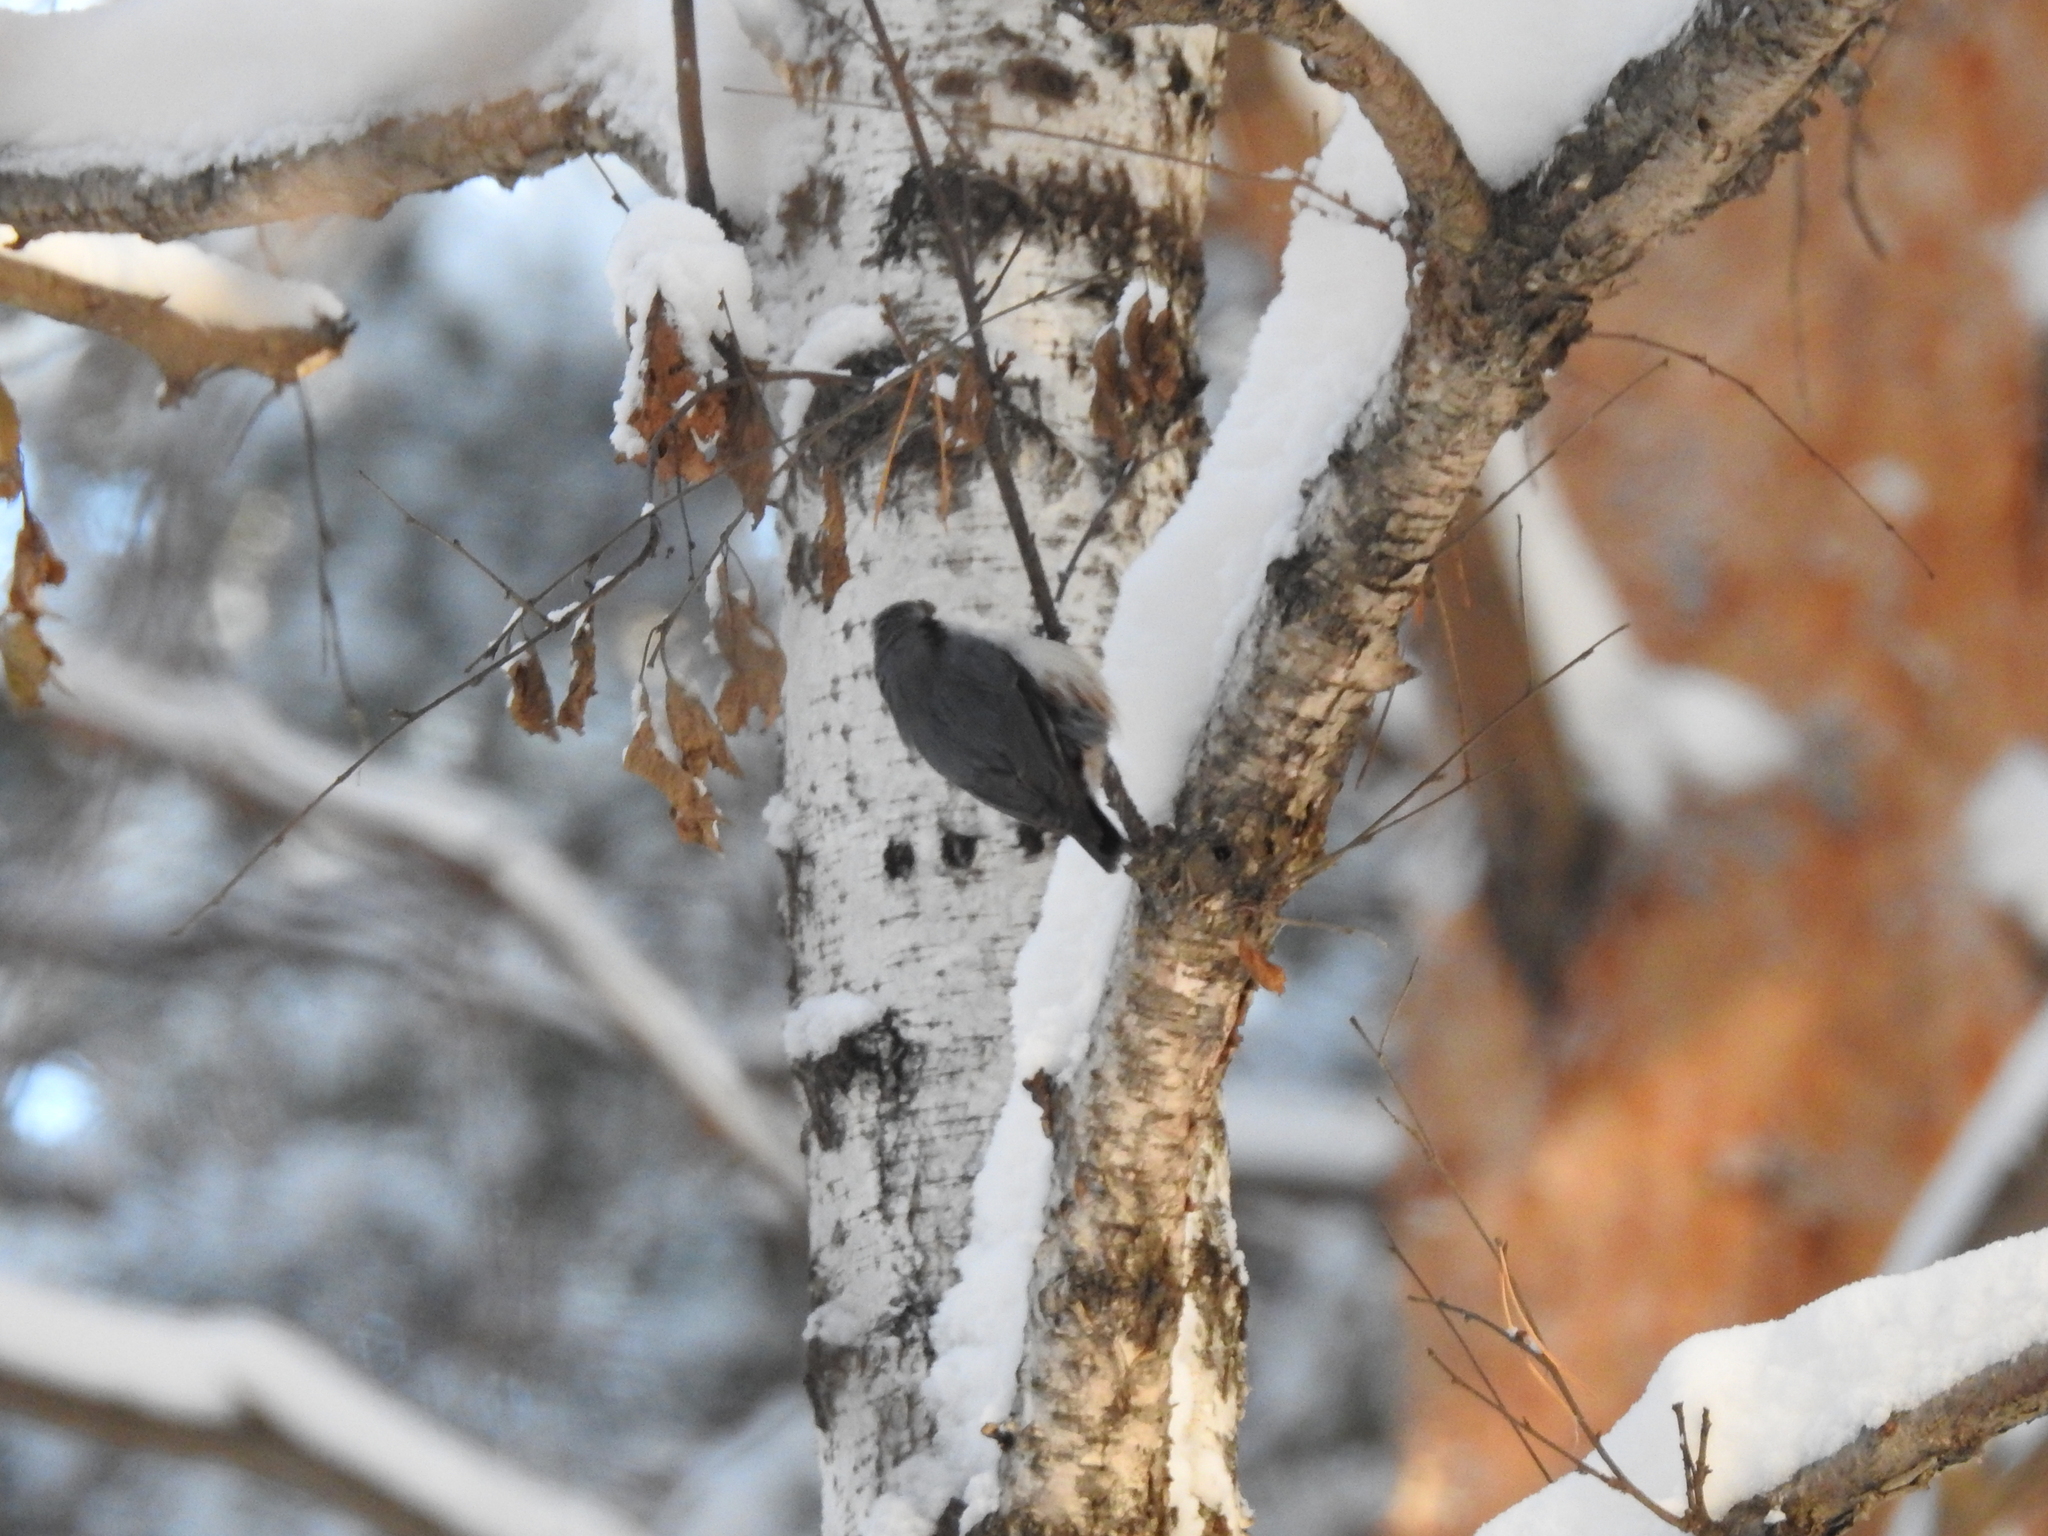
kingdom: Animalia
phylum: Chordata
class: Aves
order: Passeriformes
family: Sittidae
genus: Sitta
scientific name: Sitta europaea
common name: Eurasian nuthatch
